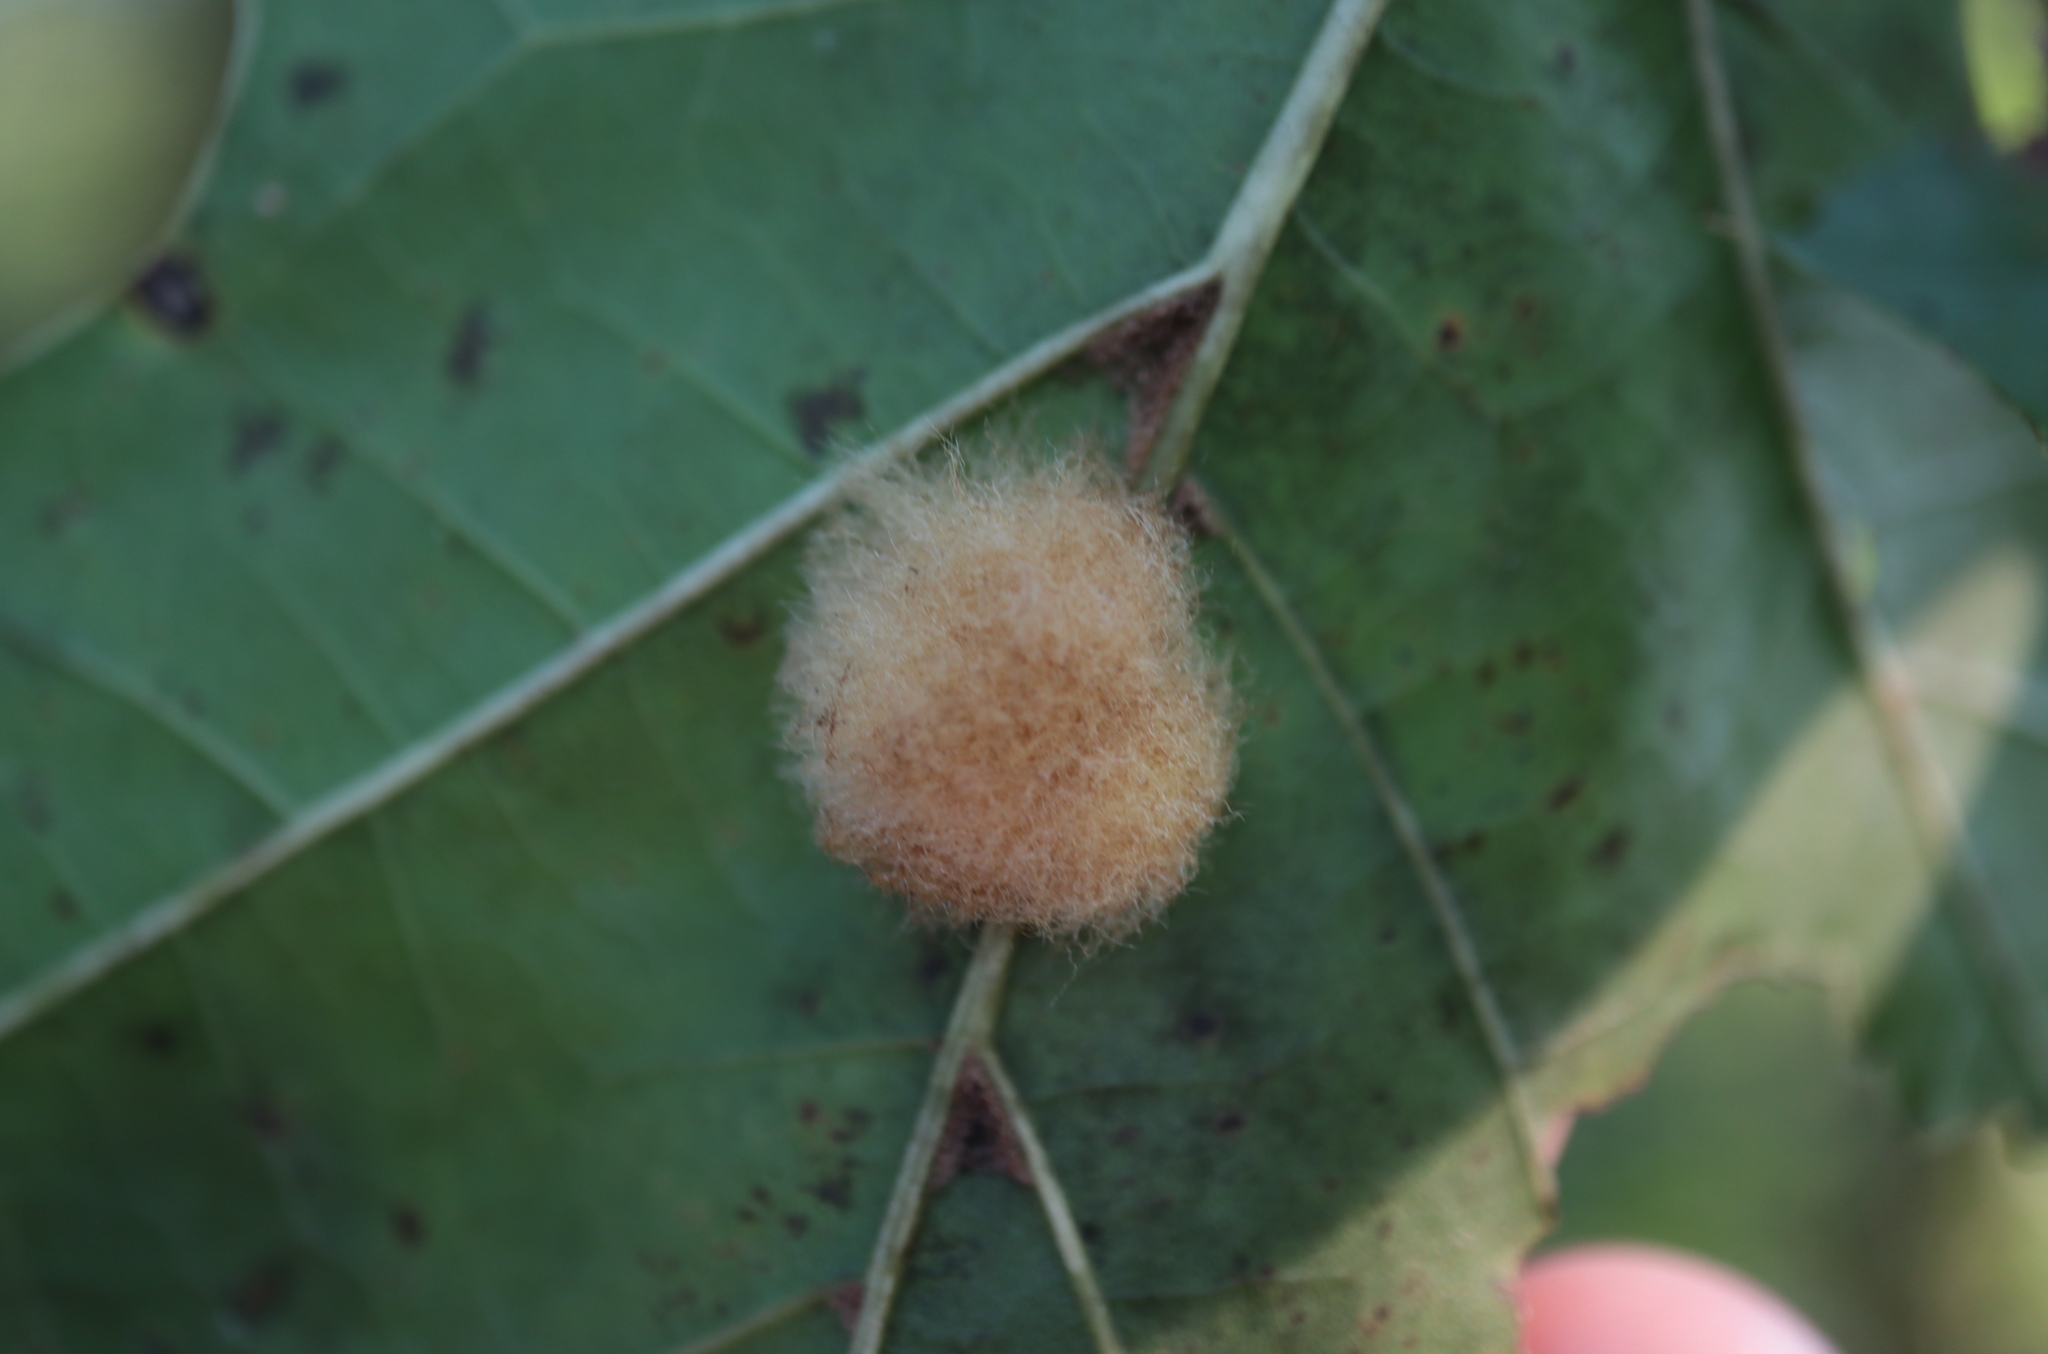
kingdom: Animalia
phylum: Arthropoda
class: Insecta
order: Hymenoptera
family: Cynipidae
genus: Callirhytis
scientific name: Callirhytis
